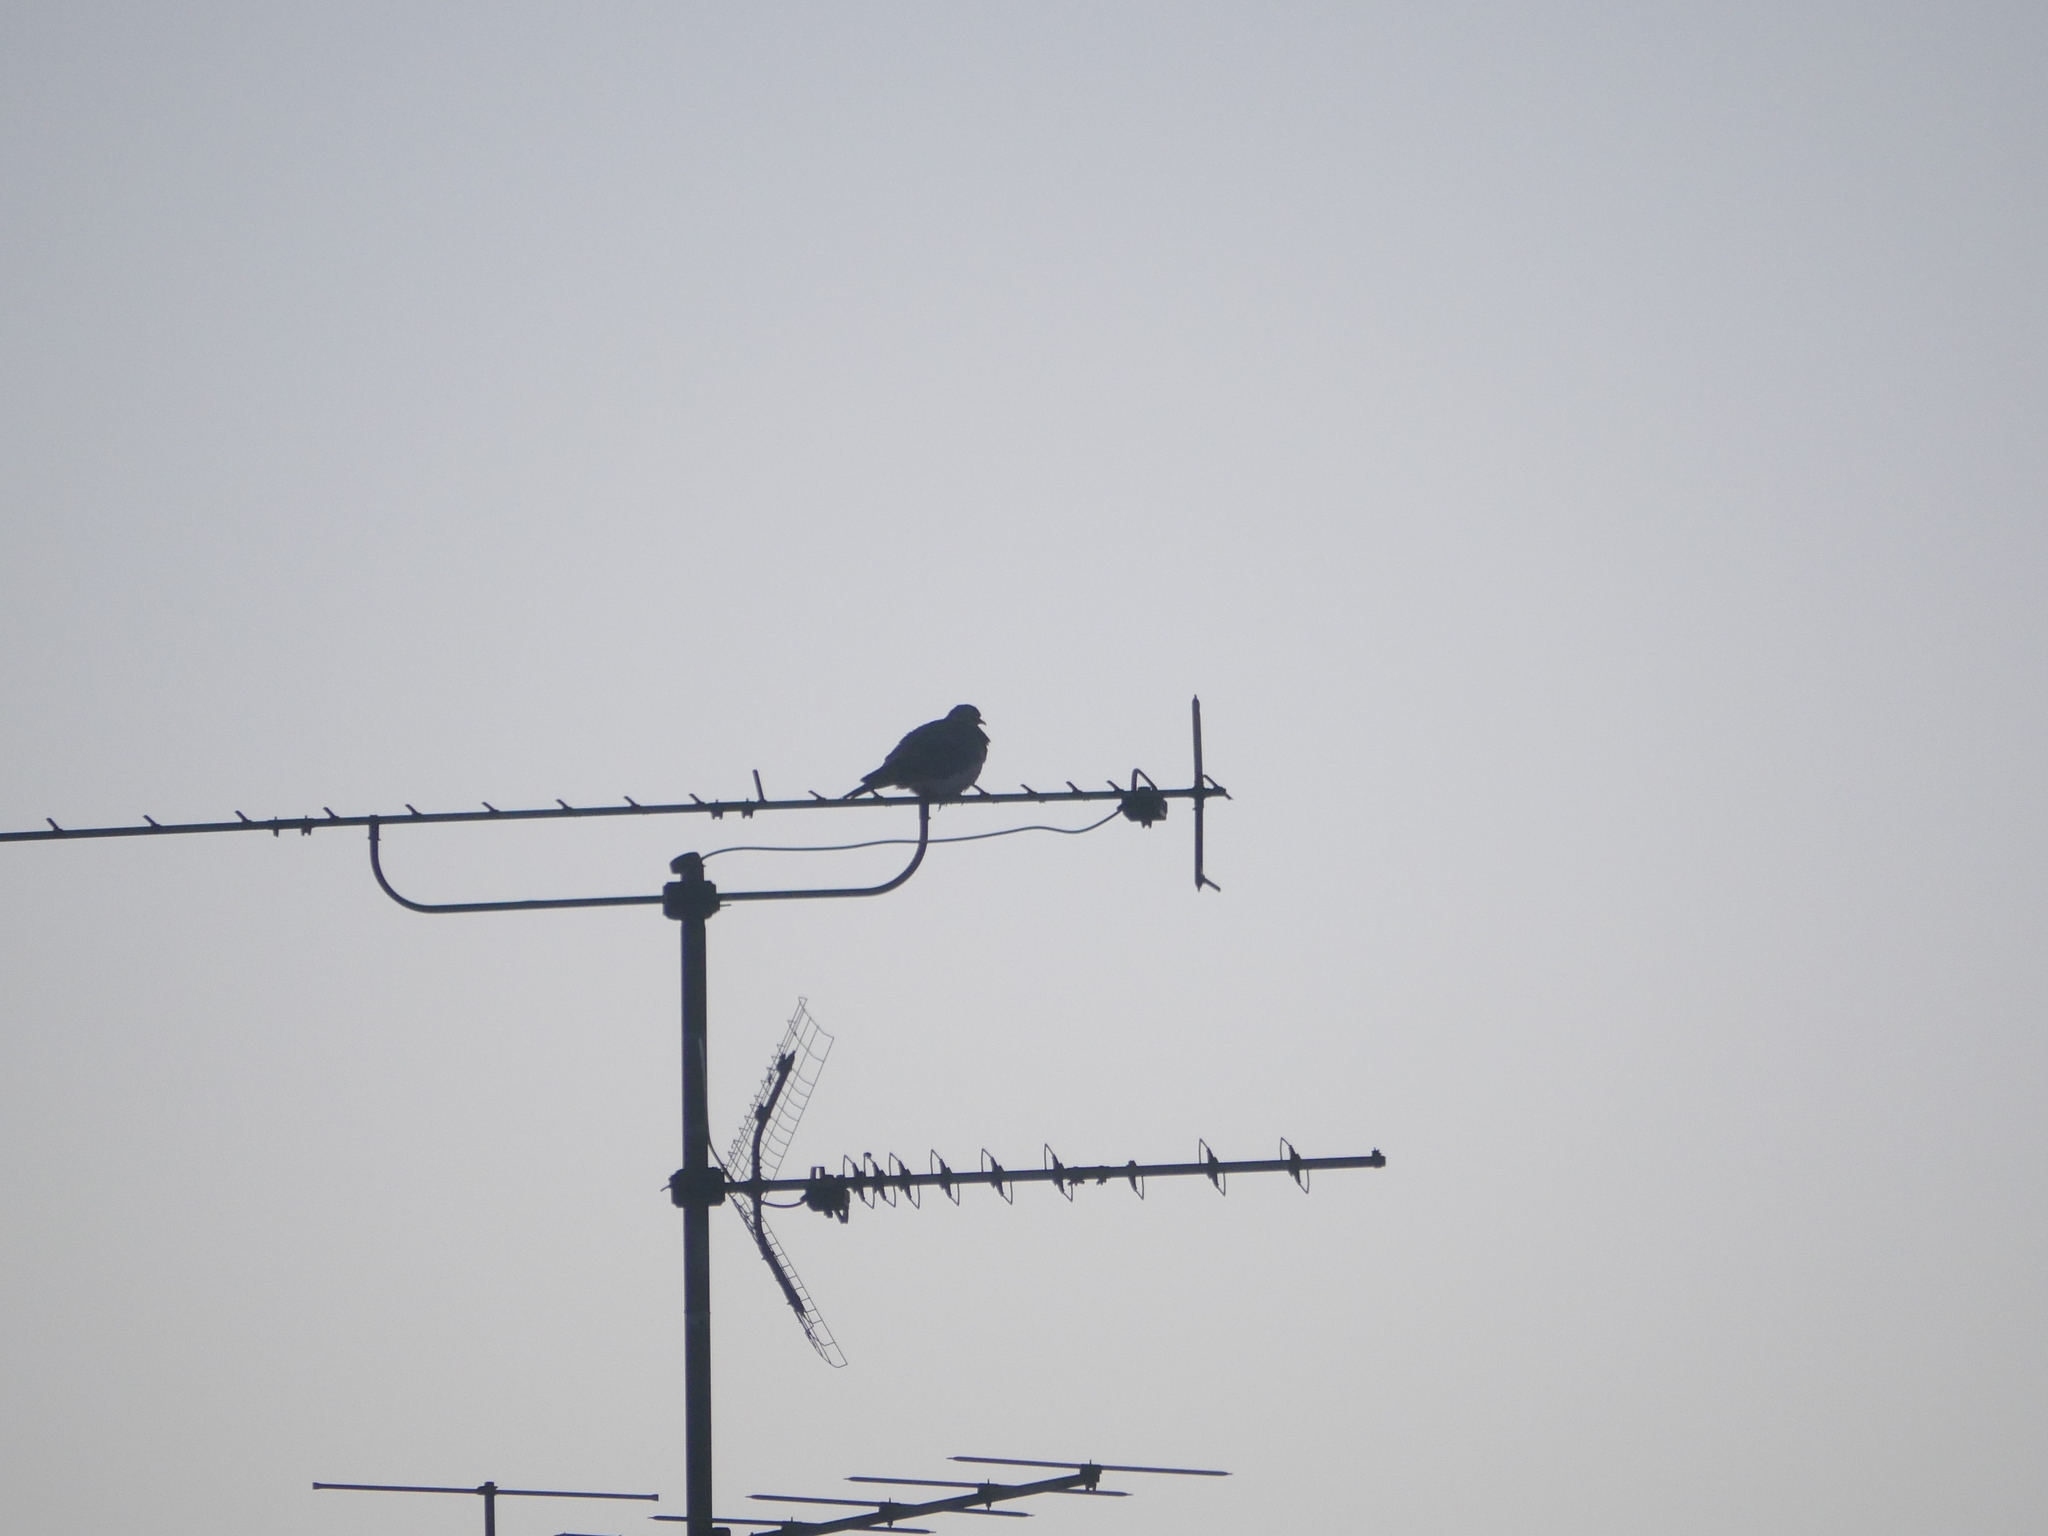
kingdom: Animalia
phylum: Chordata
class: Aves
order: Columbiformes
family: Columbidae
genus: Columba
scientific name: Columba palumbus
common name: Common wood pigeon
